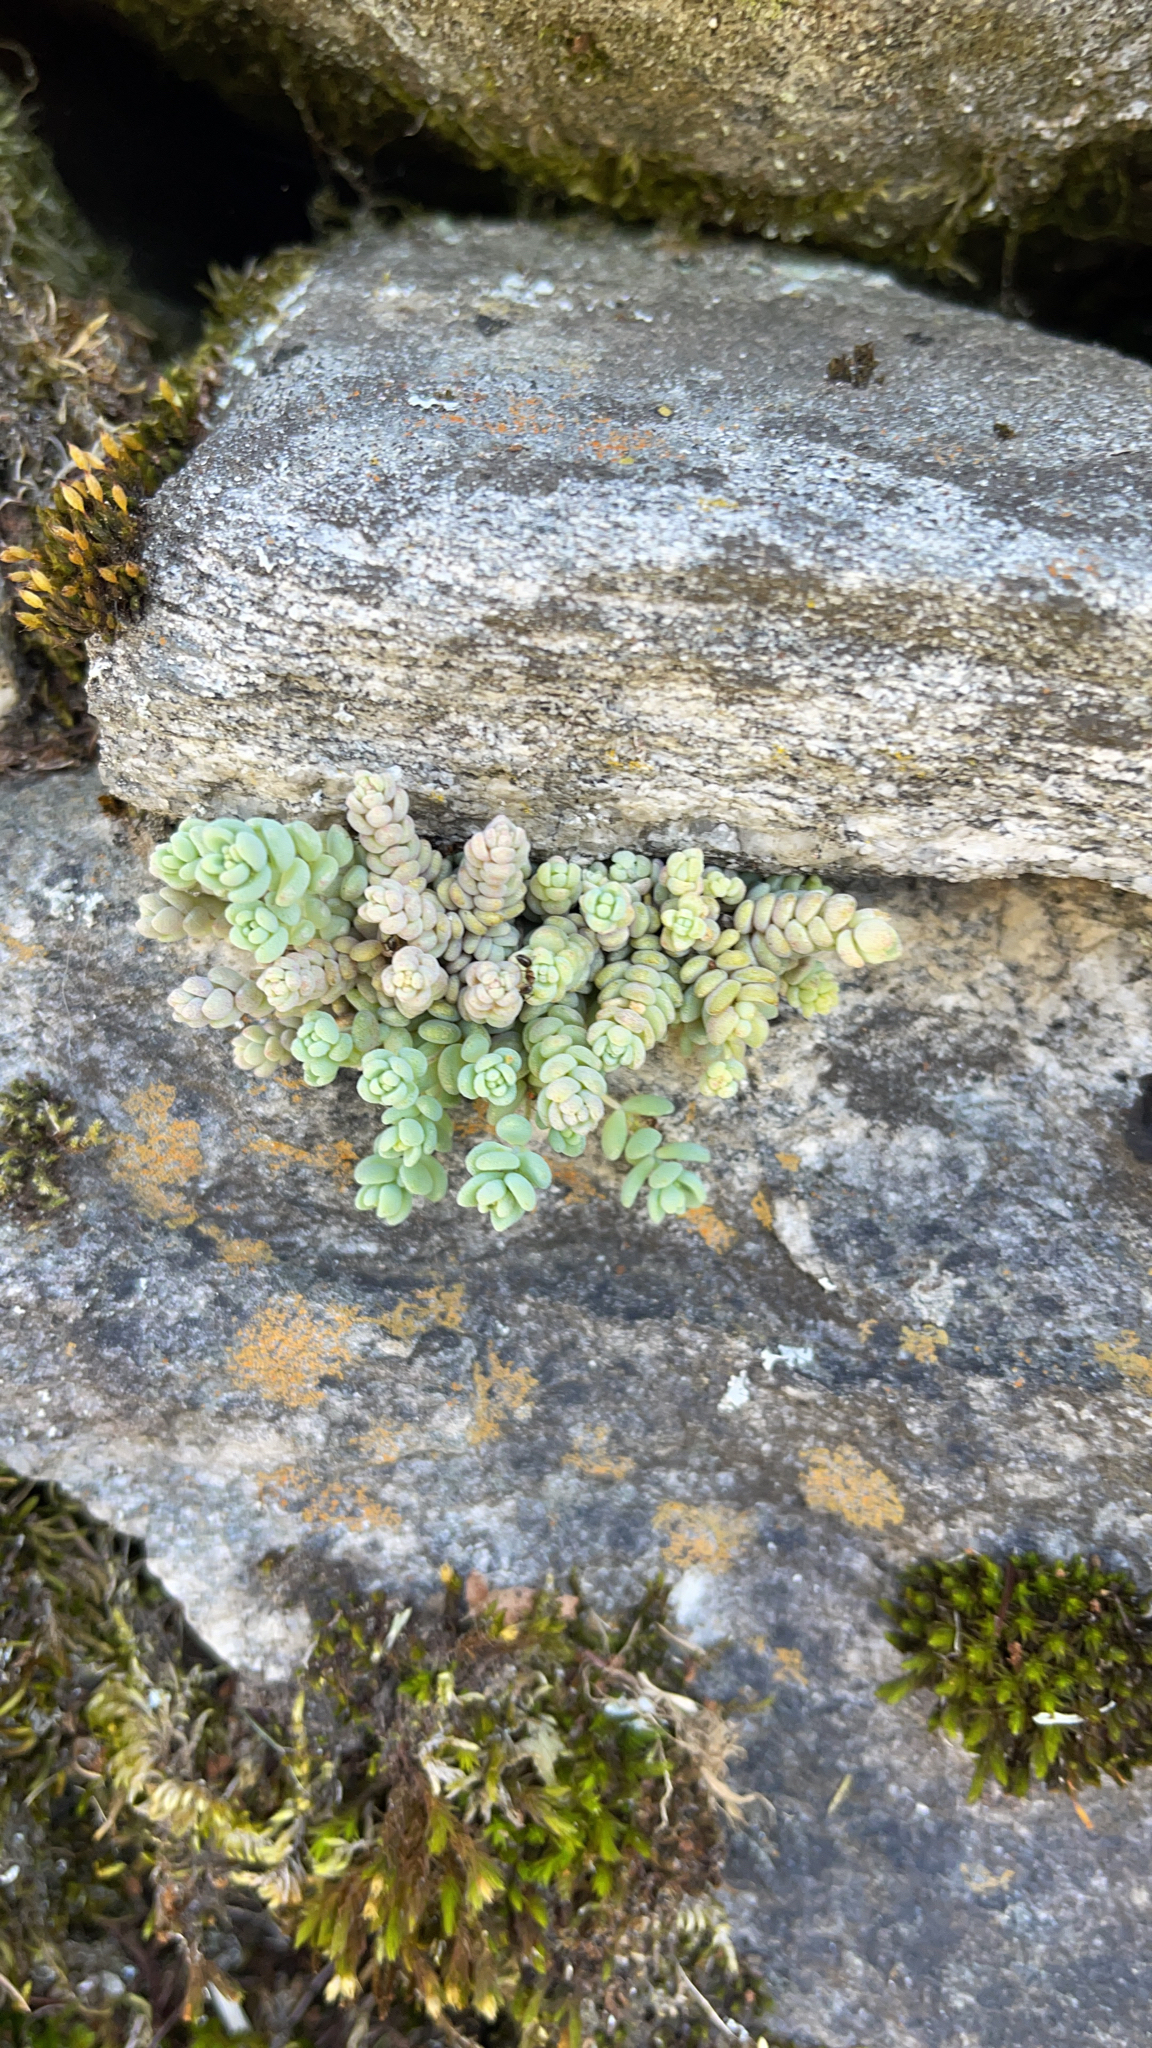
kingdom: Plantae
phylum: Tracheophyta
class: Magnoliopsida
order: Saxifragales
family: Crassulaceae
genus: Sedum
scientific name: Sedum dasyphyllum
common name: Thick-leaf stonecrop
